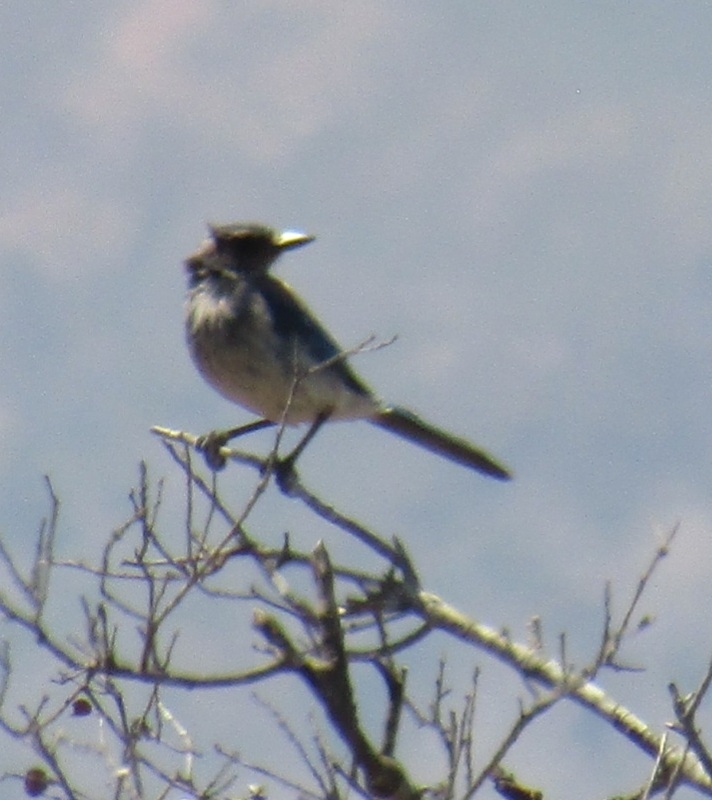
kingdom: Animalia
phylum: Chordata
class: Aves
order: Passeriformes
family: Corvidae
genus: Aphelocoma
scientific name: Aphelocoma californica
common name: California scrub-jay
